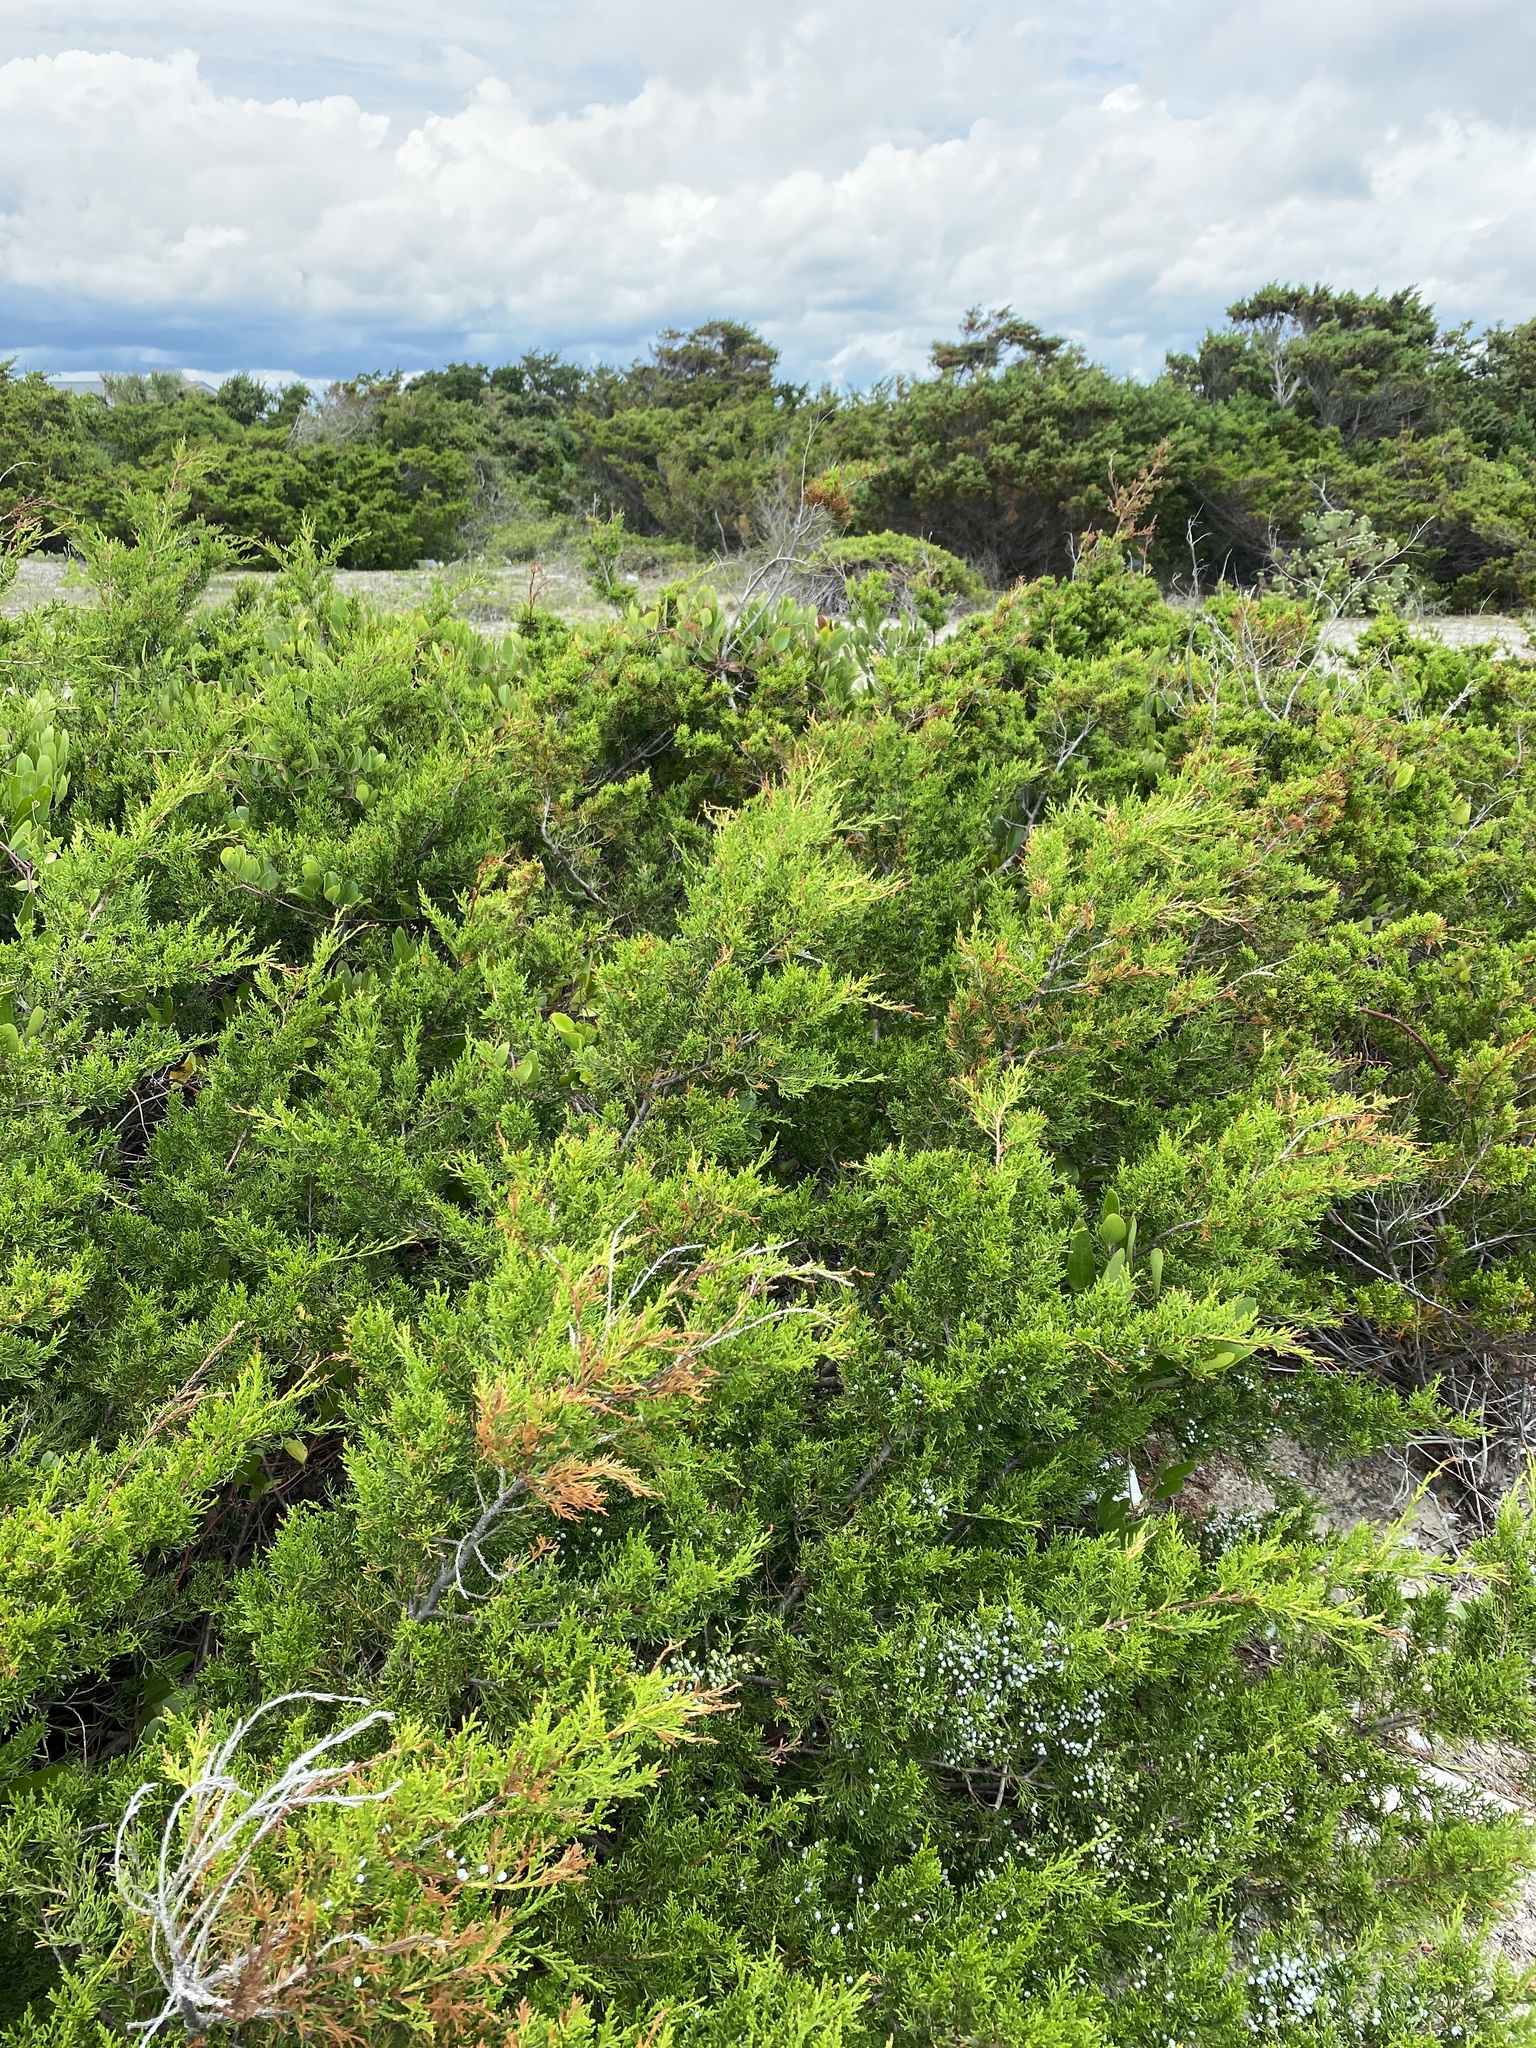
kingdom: Plantae
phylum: Tracheophyta
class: Pinopsida
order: Pinales
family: Cupressaceae
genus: Juniperus
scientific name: Juniperus virginiana
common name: Red juniper
